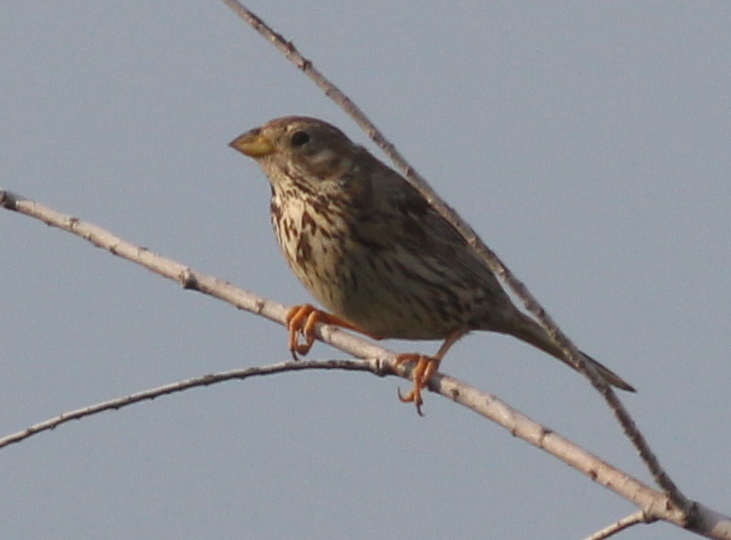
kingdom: Animalia
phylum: Chordata
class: Aves
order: Passeriformes
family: Emberizidae
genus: Emberiza
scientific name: Emberiza calandra
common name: Corn bunting
